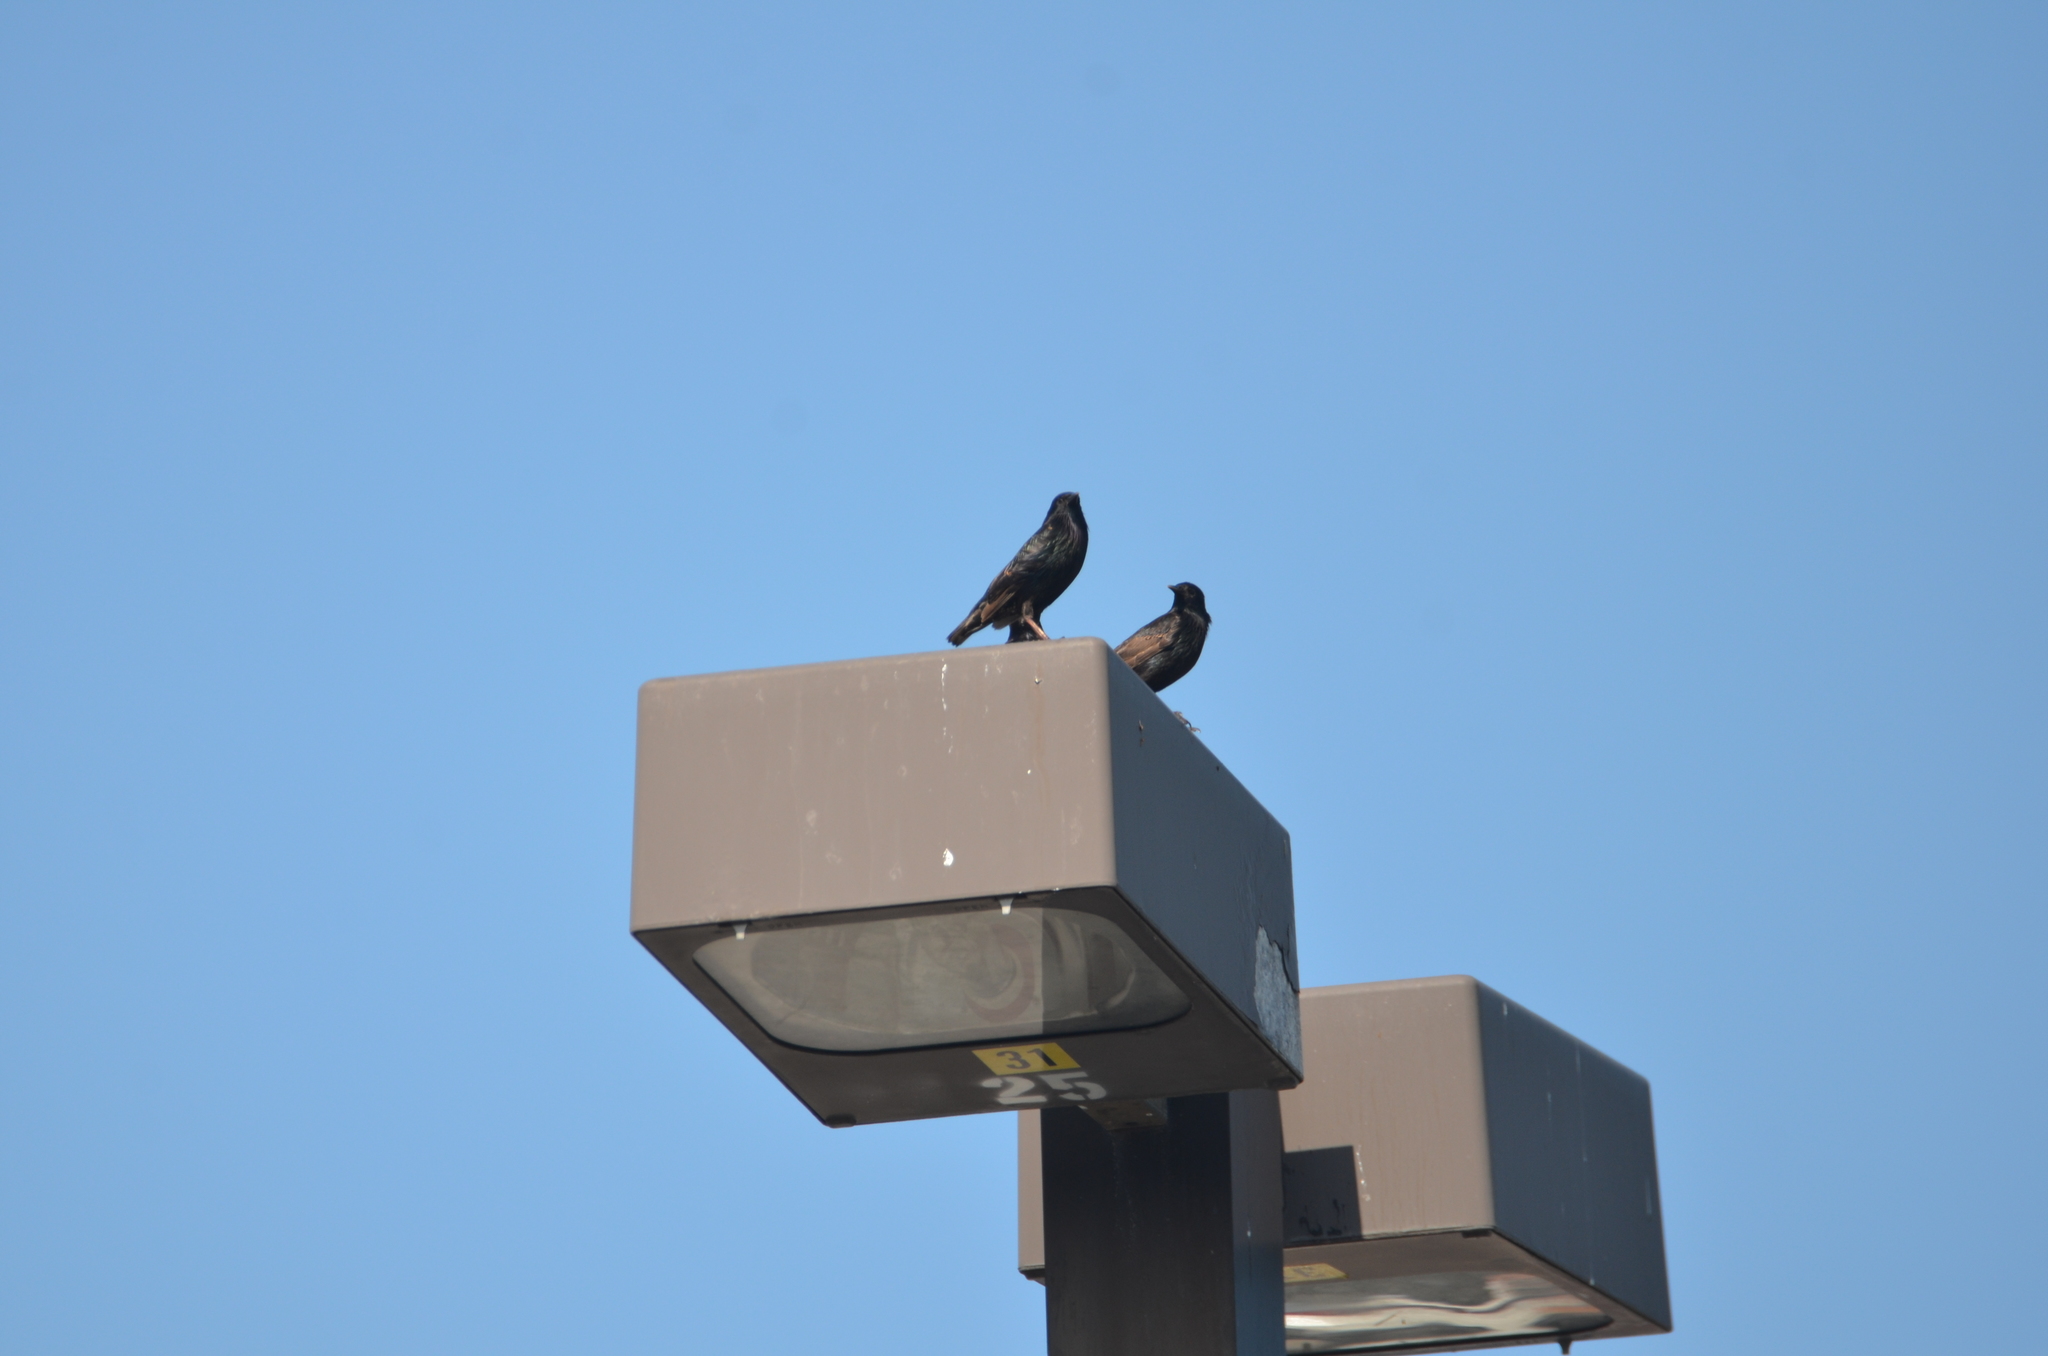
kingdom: Animalia
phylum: Chordata
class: Aves
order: Passeriformes
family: Sturnidae
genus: Sturnus
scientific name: Sturnus vulgaris
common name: Common starling
